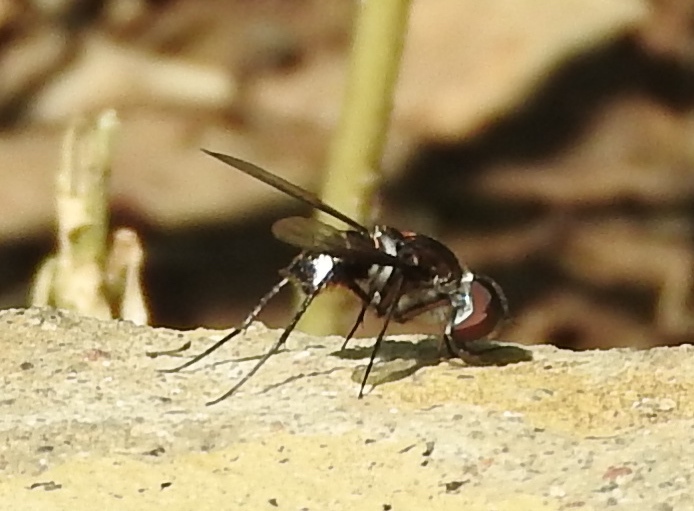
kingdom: Animalia
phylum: Arthropoda
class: Insecta
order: Diptera
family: Bombyliidae
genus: Anthrax
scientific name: Anthrax
